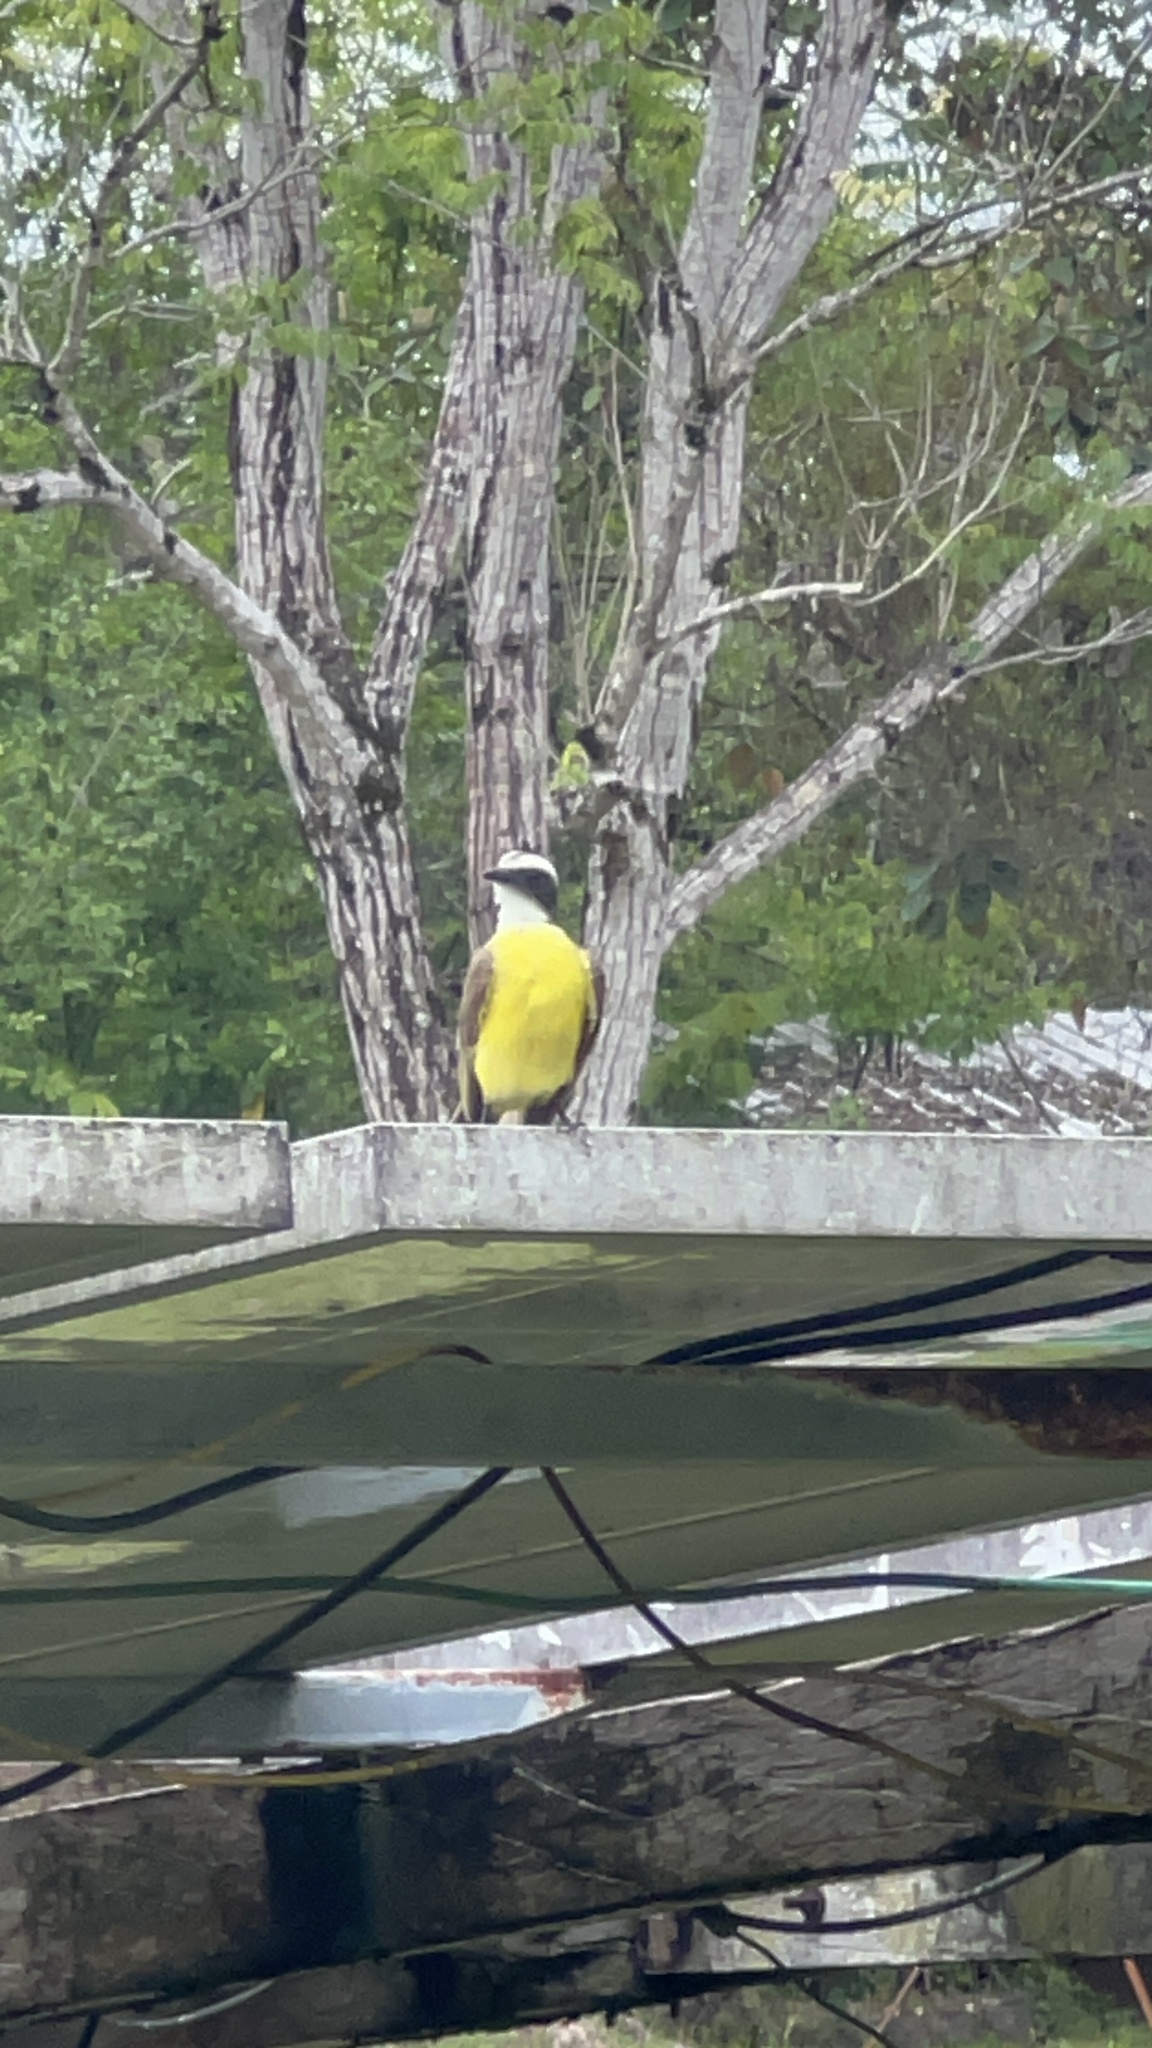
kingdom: Animalia
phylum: Chordata
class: Aves
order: Passeriformes
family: Tyrannidae
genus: Myiozetetes
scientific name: Myiozetetes similis
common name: Social flycatcher
